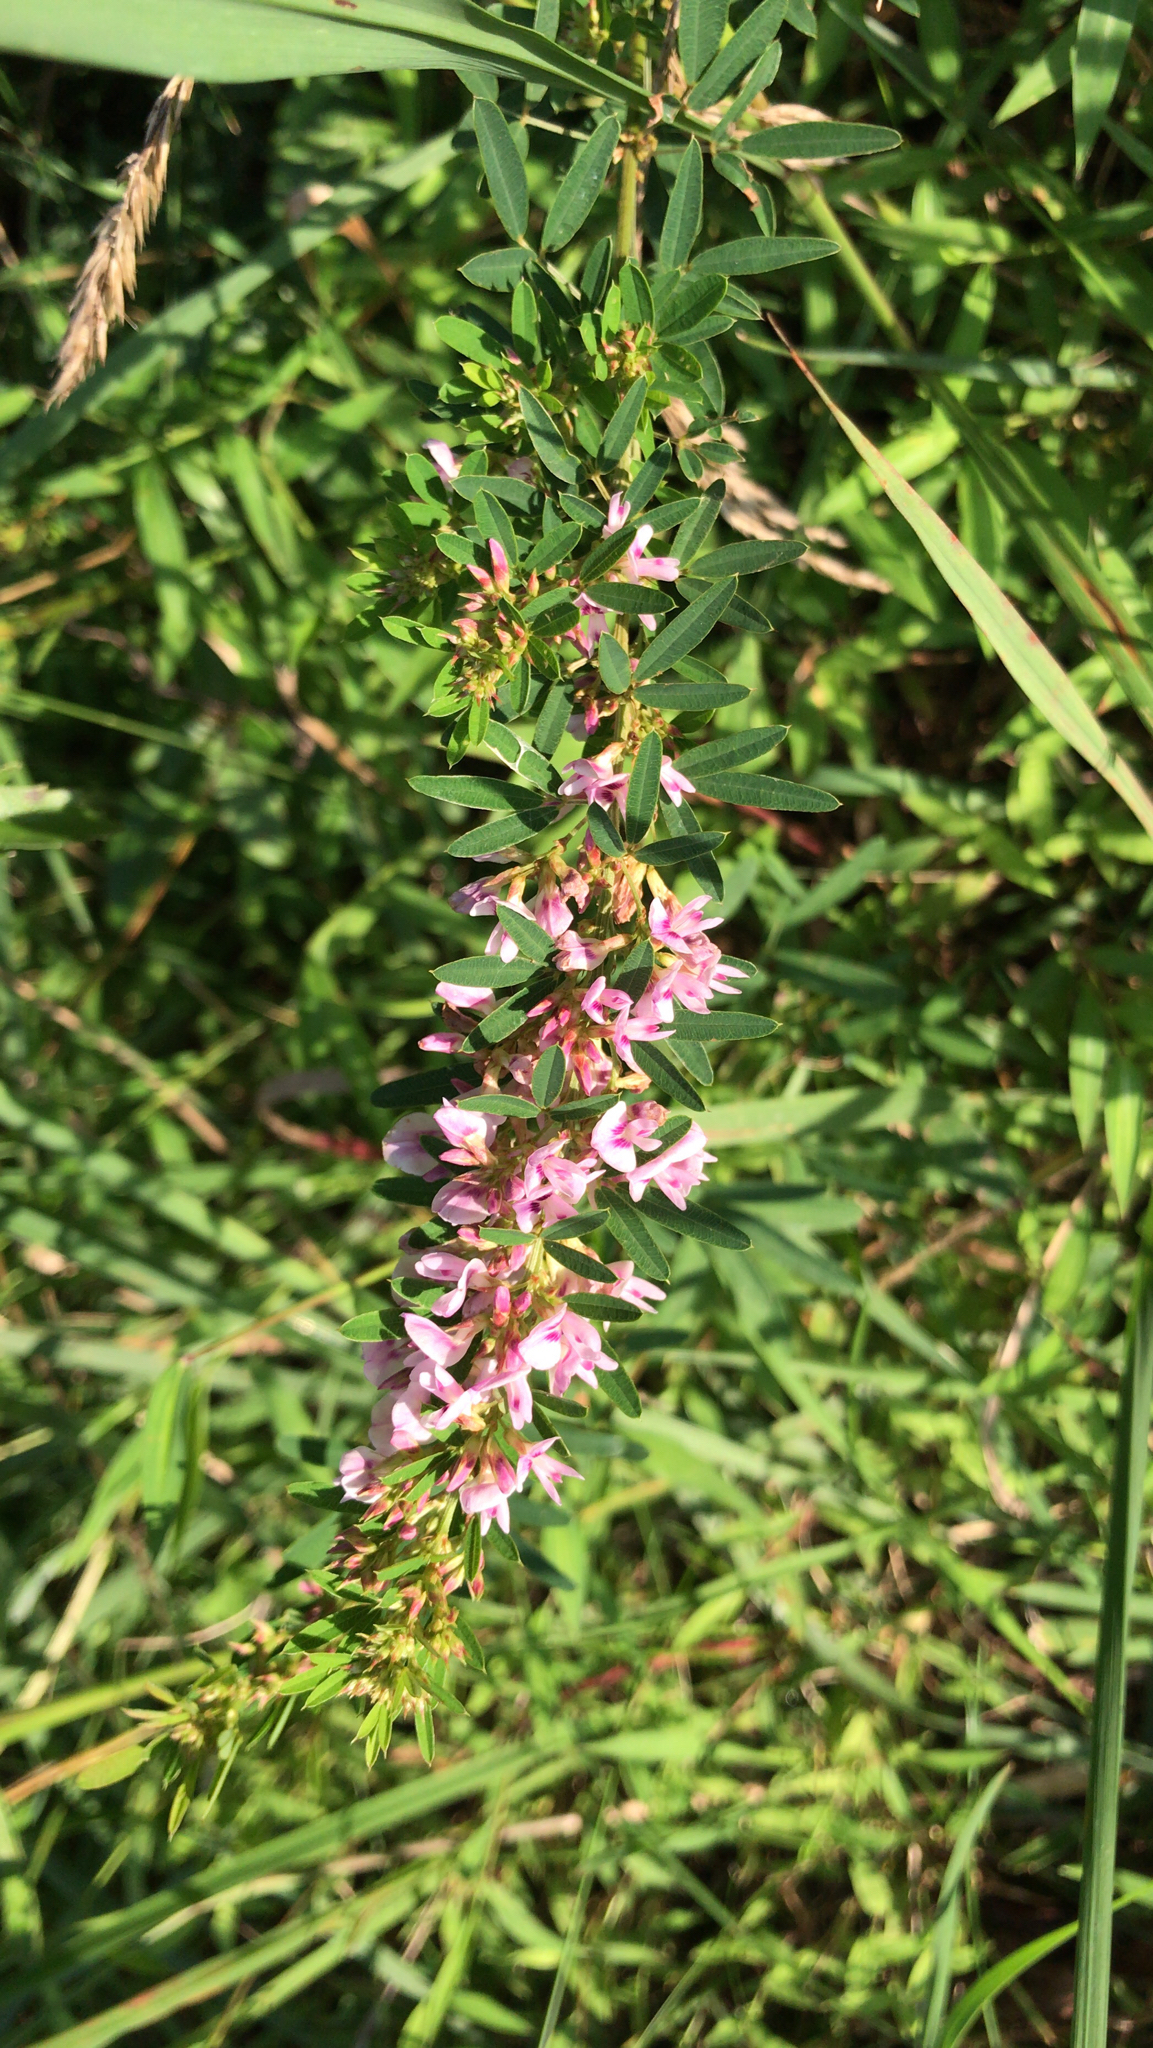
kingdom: Plantae
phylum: Tracheophyta
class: Magnoliopsida
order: Fabales
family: Fabaceae
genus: Lespedeza
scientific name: Lespedeza virginica
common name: Slender bush-clover
